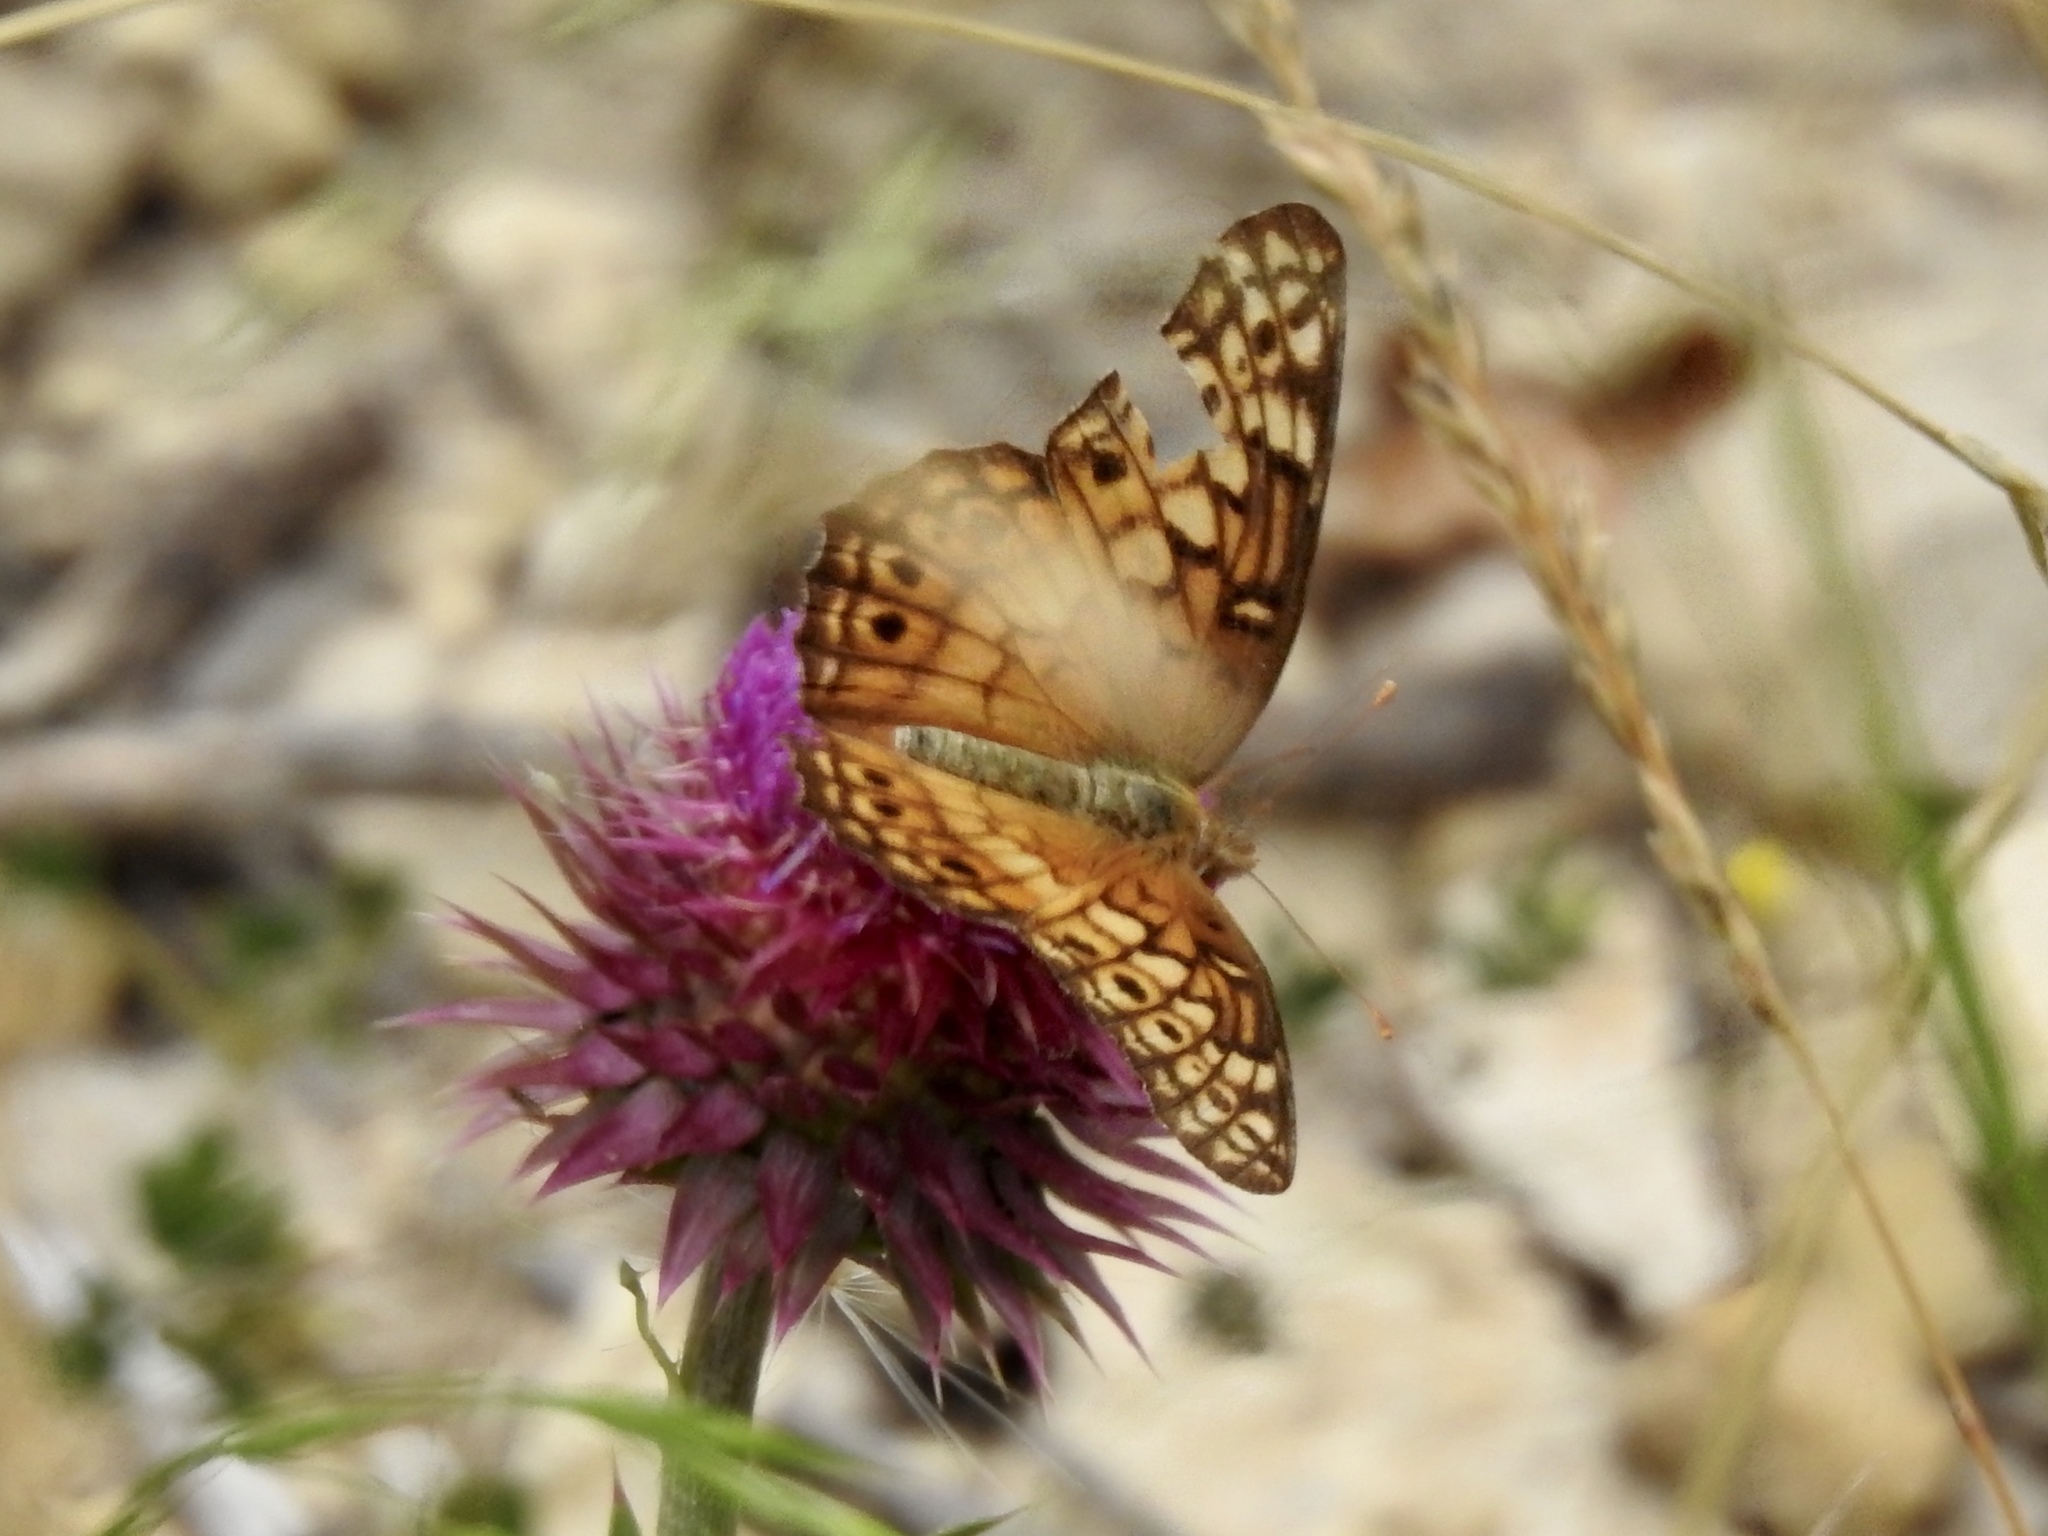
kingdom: Animalia
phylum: Arthropoda
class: Insecta
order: Lepidoptera
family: Nymphalidae
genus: Euptoieta
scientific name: Euptoieta claudia
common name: Variegated fritillary
